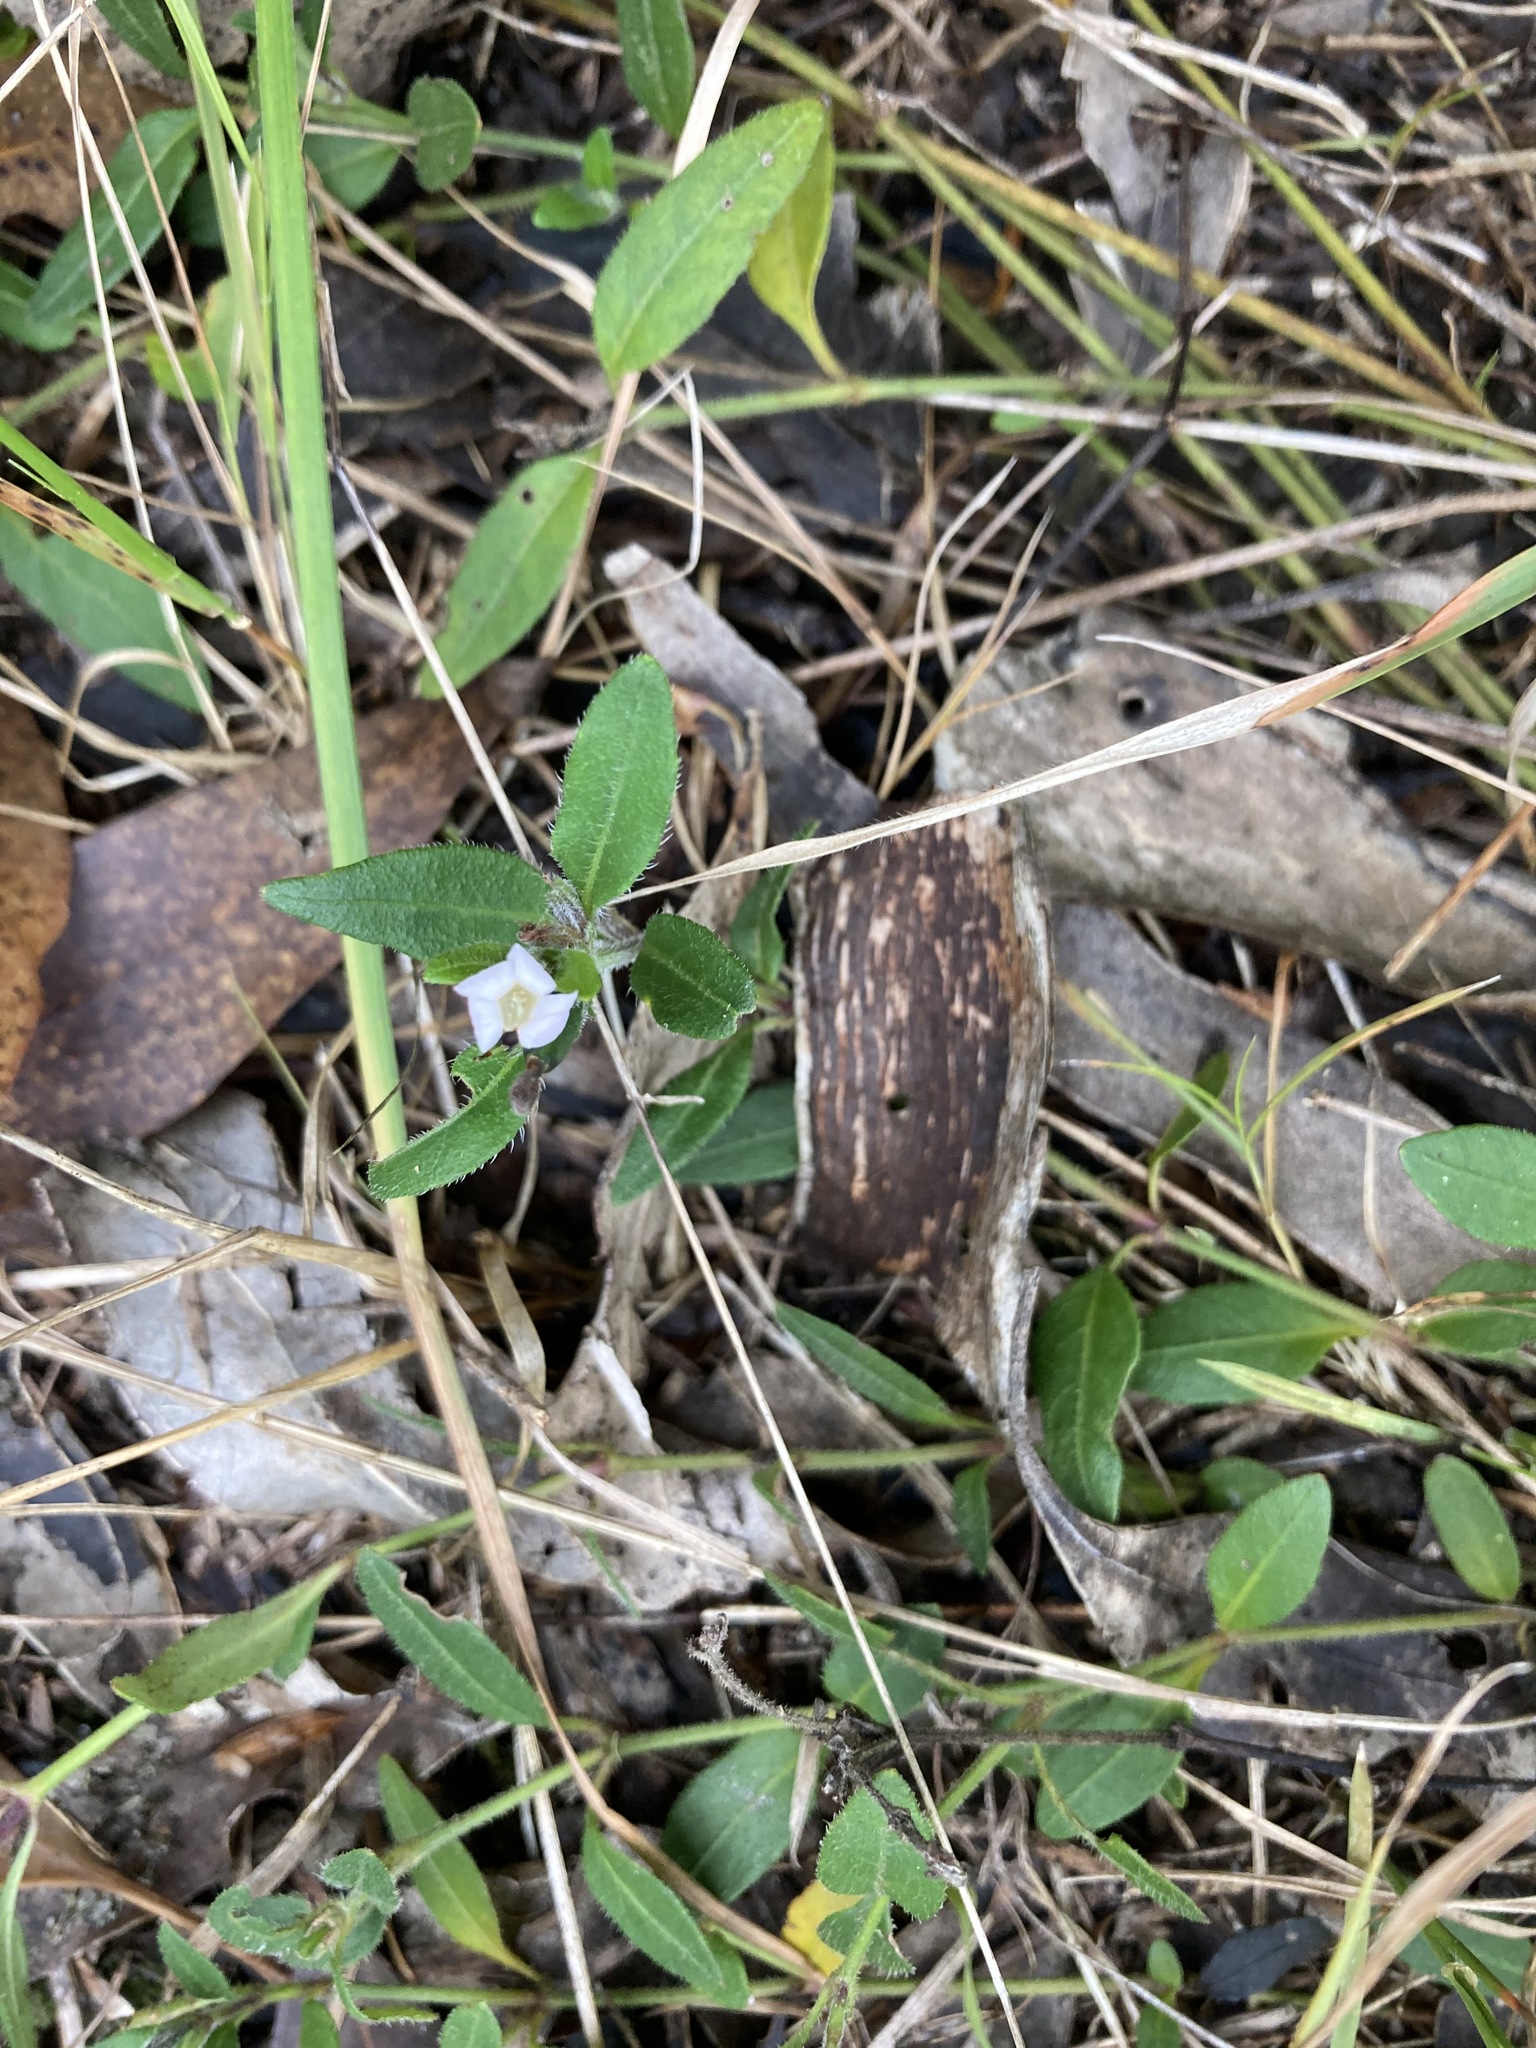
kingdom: Plantae
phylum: Tracheophyta
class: Magnoliopsida
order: Lamiales
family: Acanthaceae
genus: Brunoniella
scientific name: Brunoniella australis
